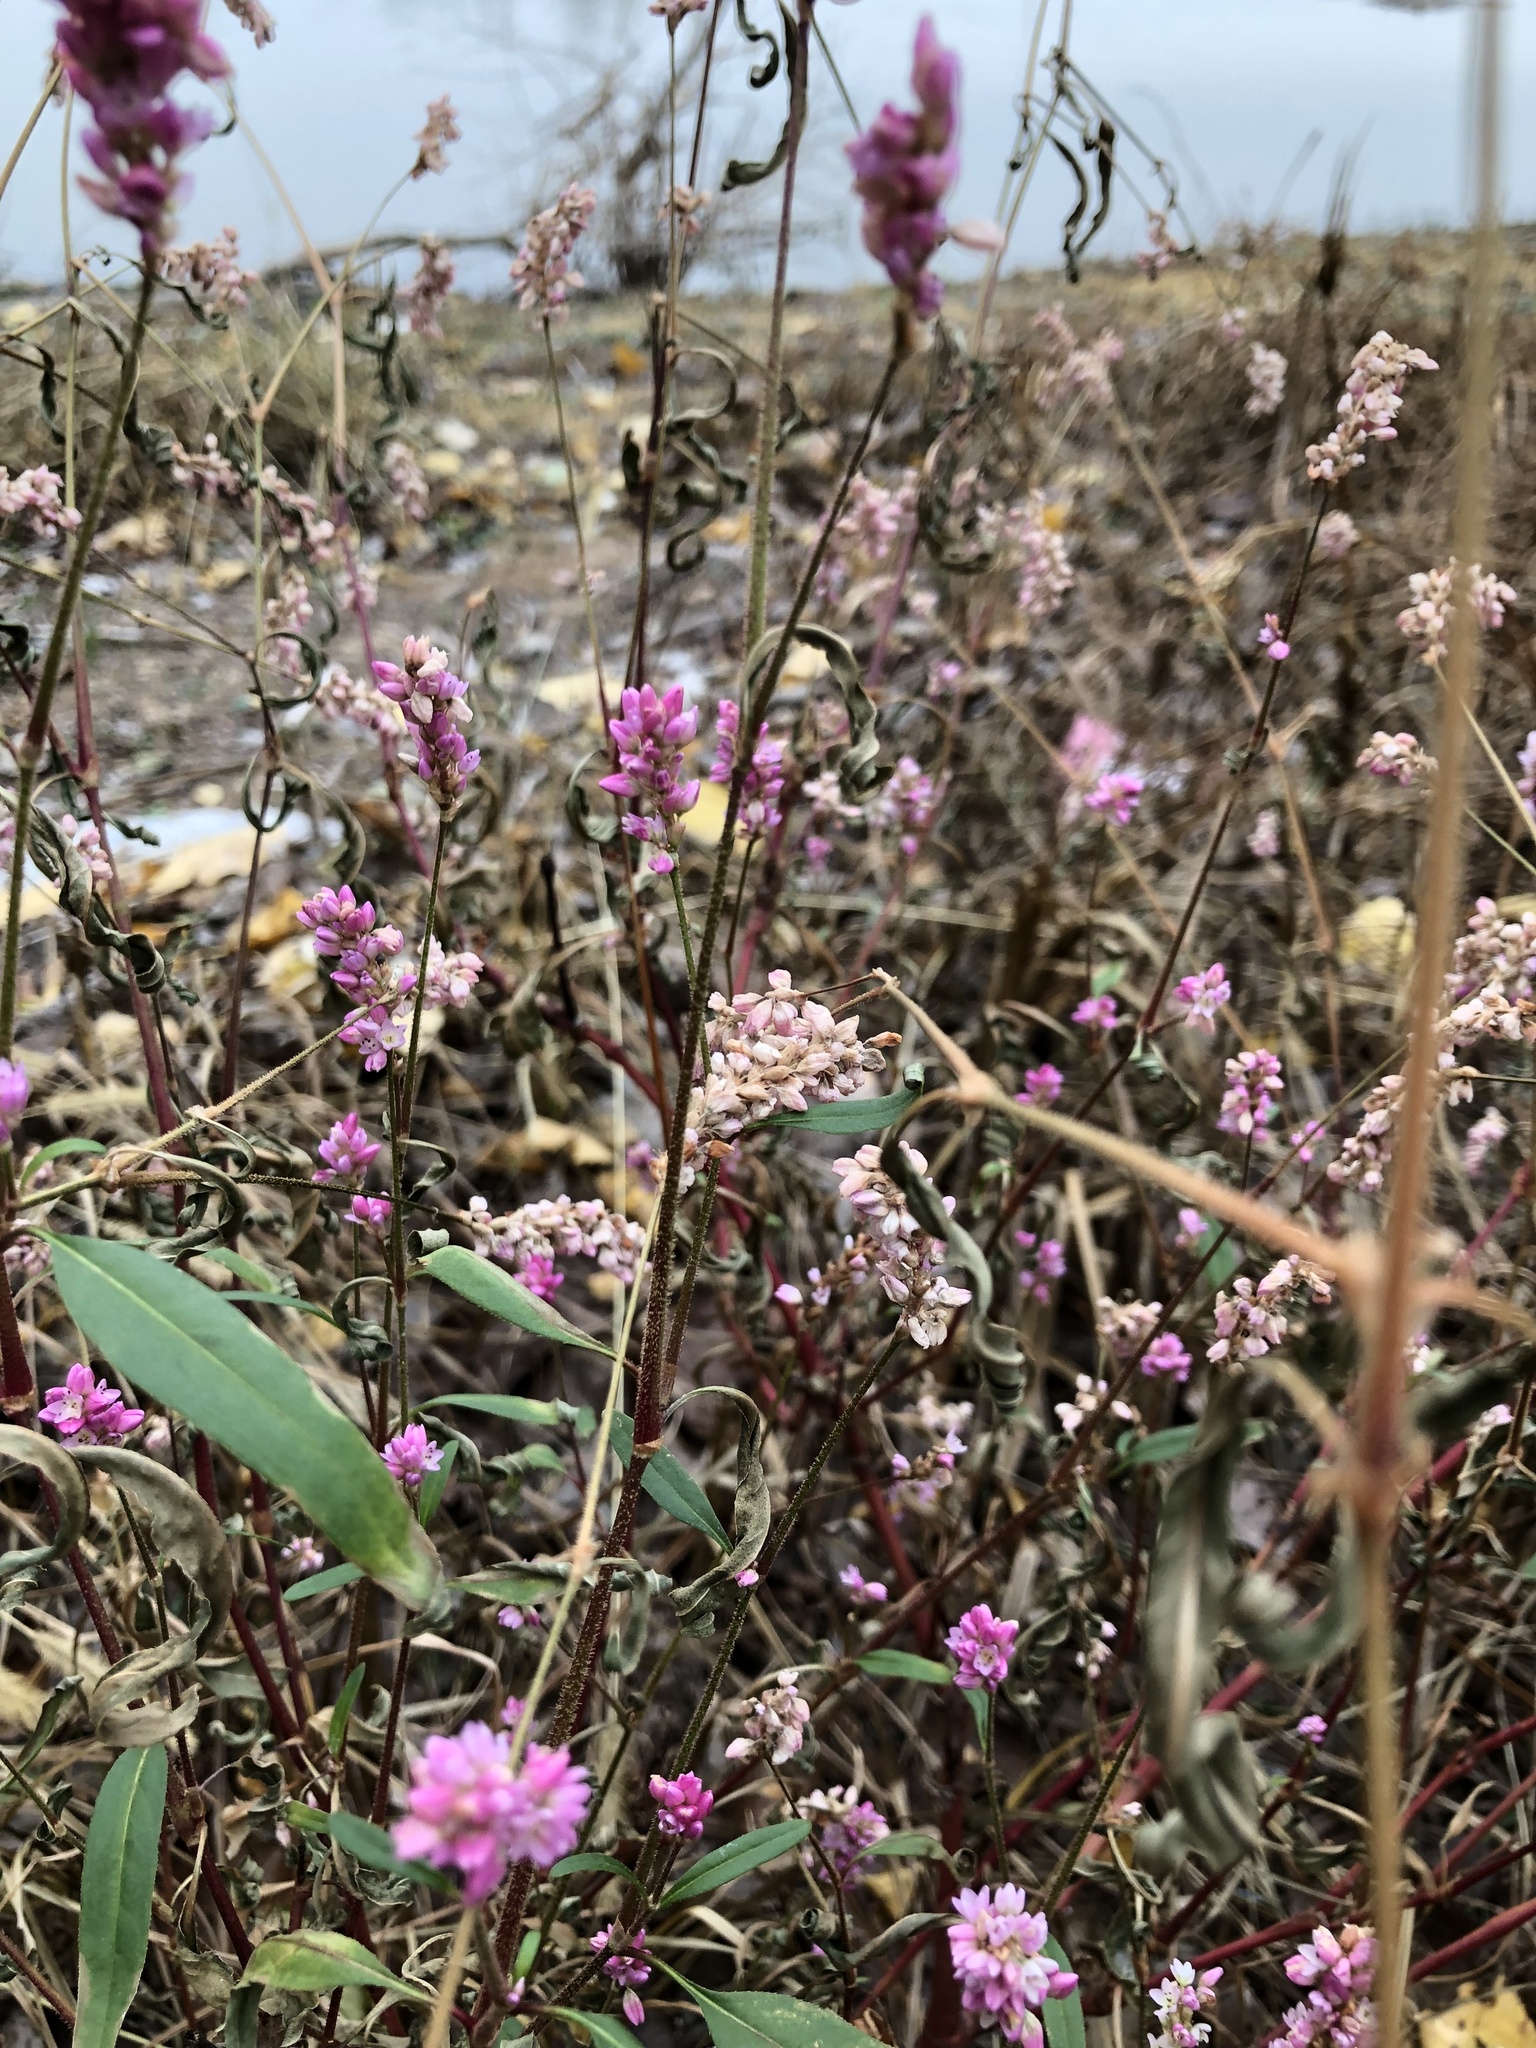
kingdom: Plantae
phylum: Tracheophyta
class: Magnoliopsida
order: Caryophyllales
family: Polygonaceae
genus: Persicaria
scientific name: Persicaria pensylvanica
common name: Pinkweed
